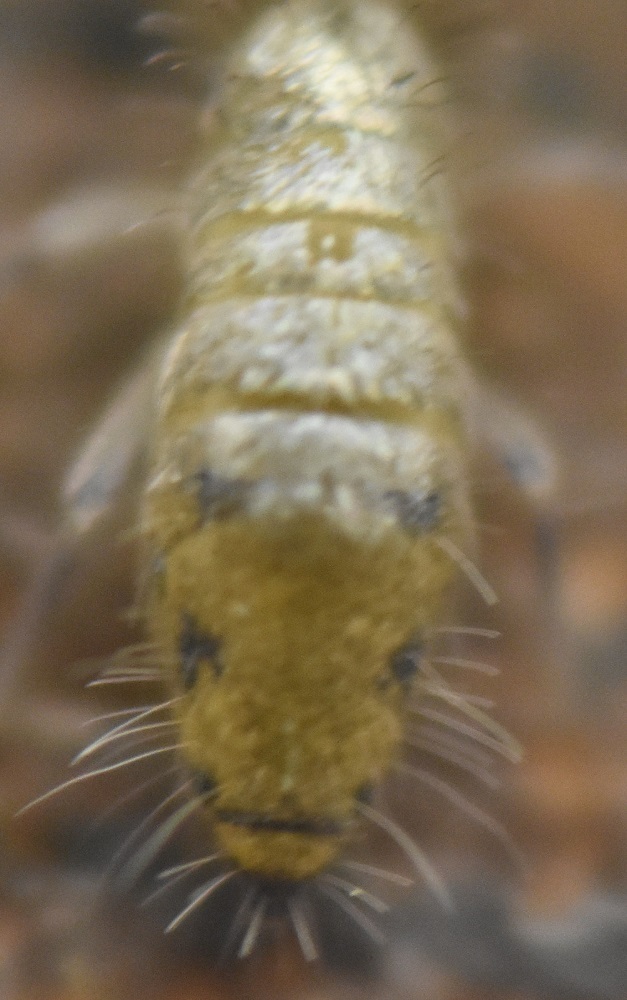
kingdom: Animalia
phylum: Arthropoda
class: Collembola
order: Entomobryomorpha
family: Entomobryidae
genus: Willowsia
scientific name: Willowsia nigromaculata
